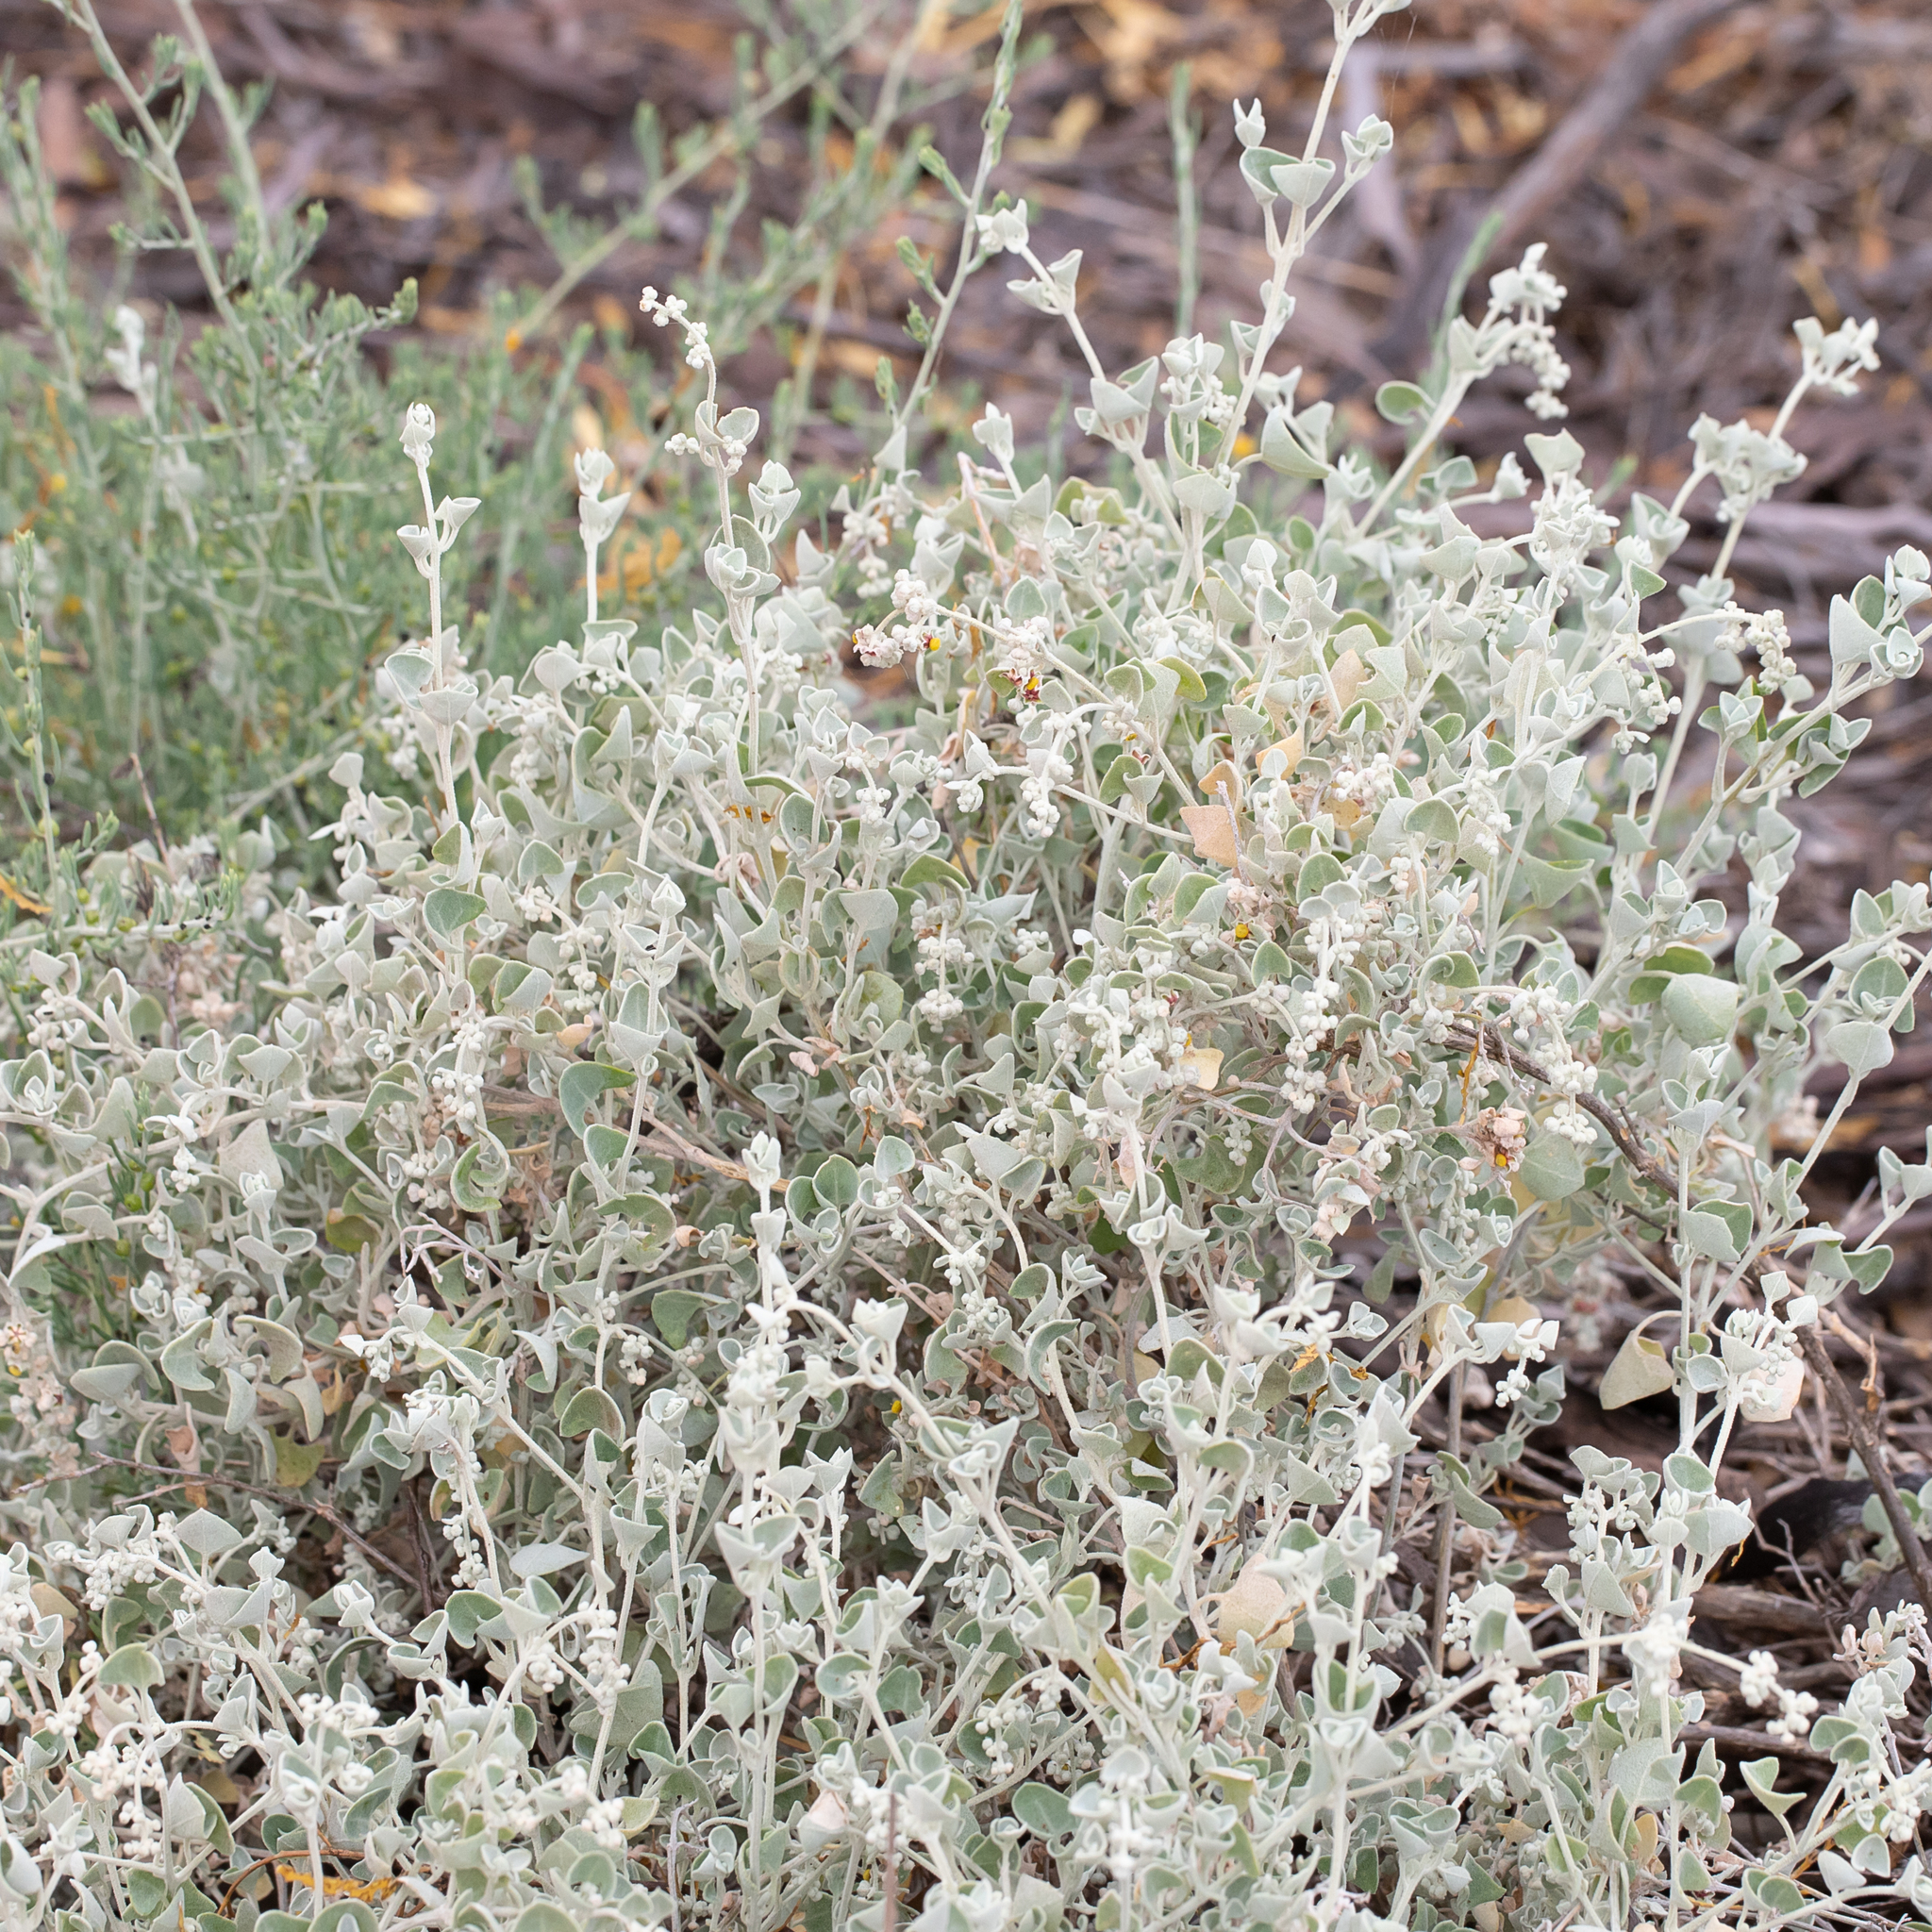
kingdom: Plantae
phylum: Tracheophyta
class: Magnoliopsida
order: Caryophyllales
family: Amaranthaceae
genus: Chenopodium
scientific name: Chenopodium curvispicatum
